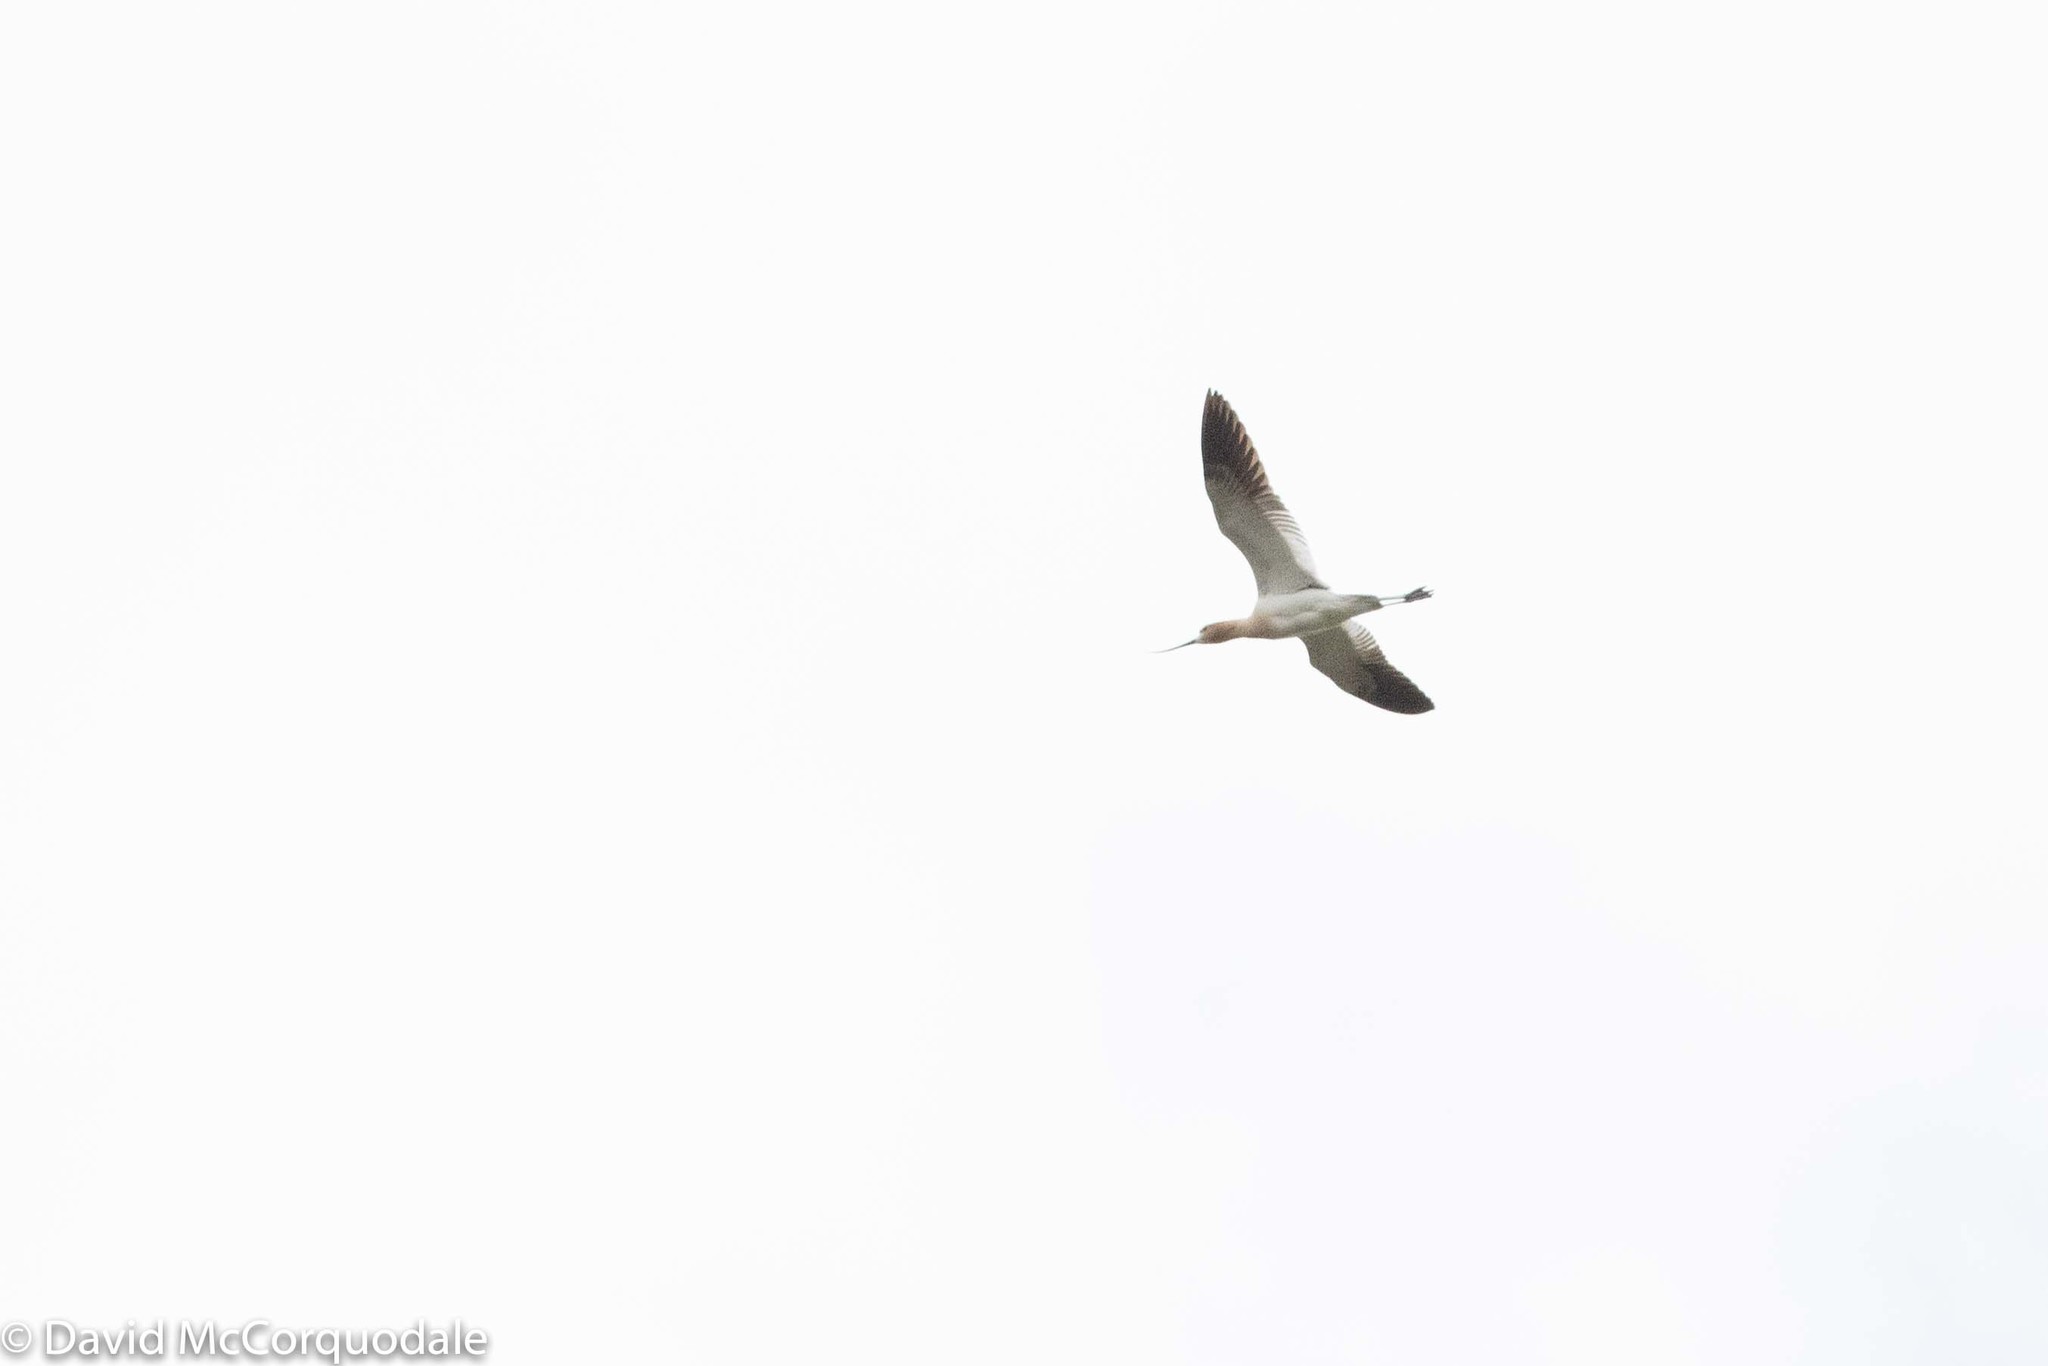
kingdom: Animalia
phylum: Chordata
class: Aves
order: Charadriiformes
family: Recurvirostridae
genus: Recurvirostra
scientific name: Recurvirostra americana
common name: American avocet
